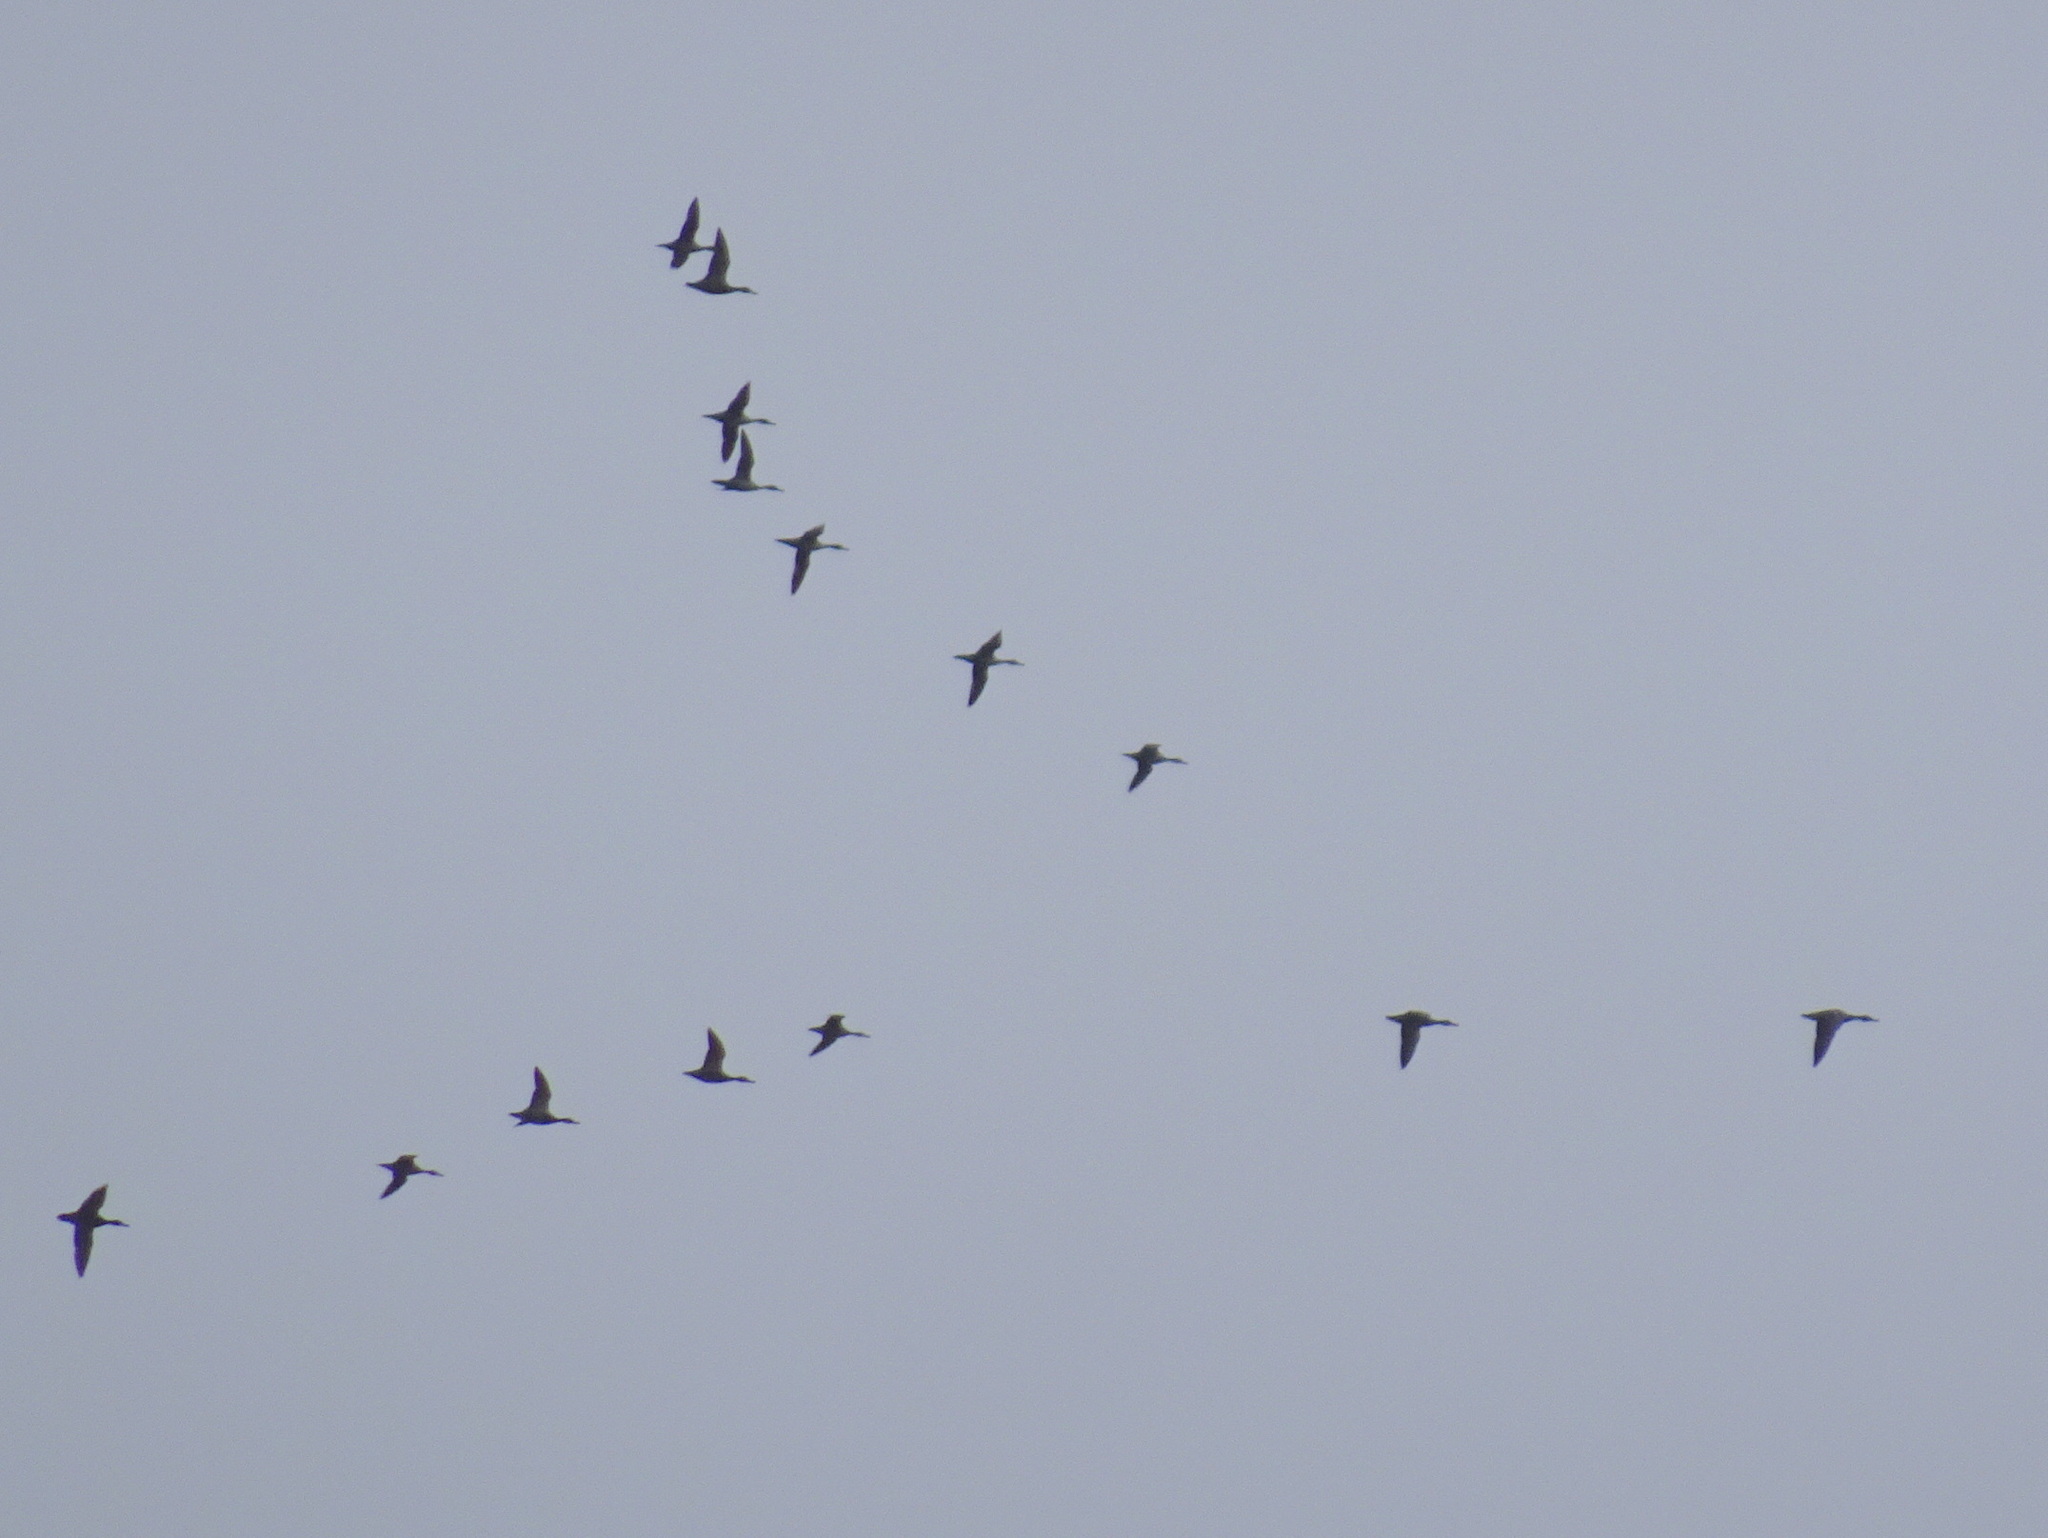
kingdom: Animalia
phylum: Chordata
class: Aves
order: Anseriformes
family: Anatidae
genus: Anas
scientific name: Anas acuta
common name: Northern pintail
